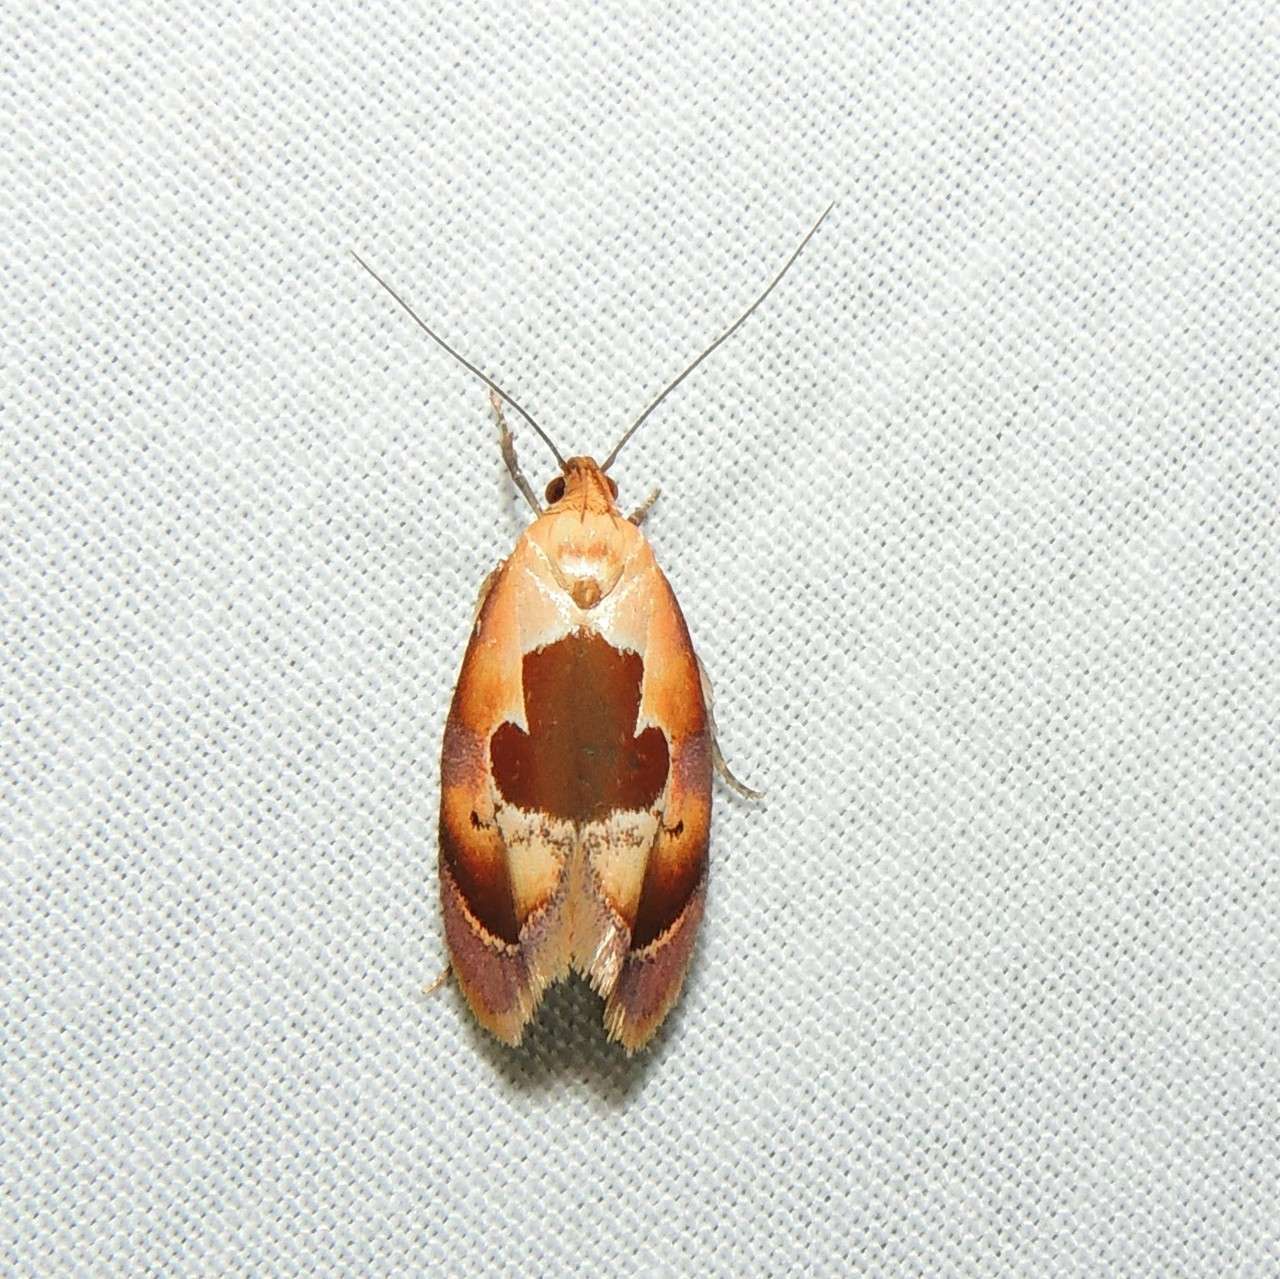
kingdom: Animalia
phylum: Arthropoda
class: Insecta
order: Lepidoptera
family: Oecophoridae
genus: Hoplomorpha
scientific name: Hoplomorpha camelaea
